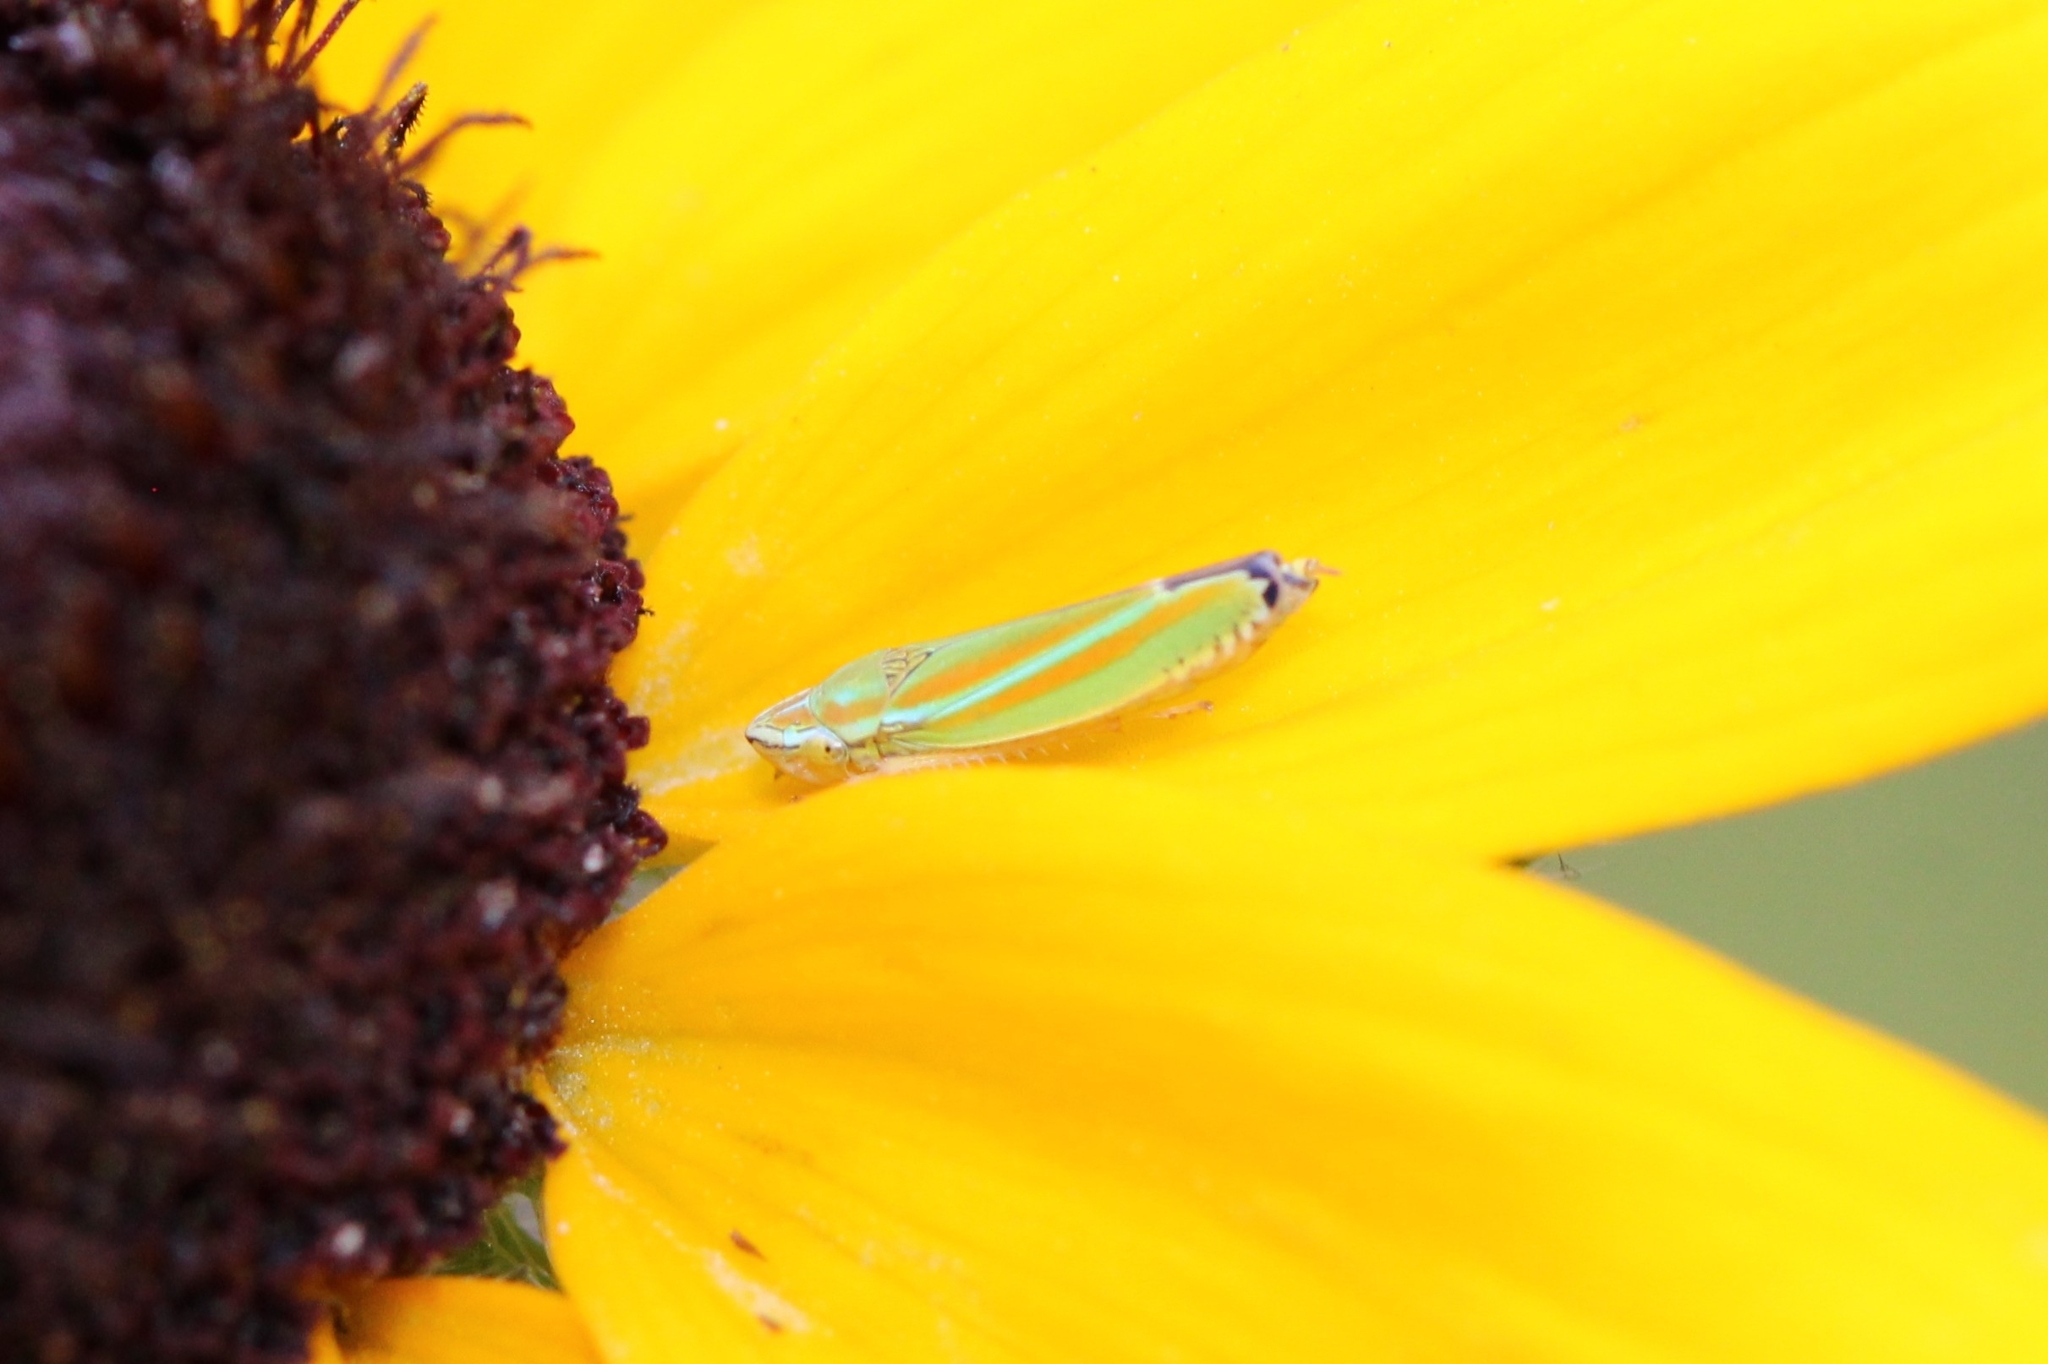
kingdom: Animalia
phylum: Arthropoda
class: Insecta
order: Hemiptera
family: Cicadellidae
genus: Graphocephala
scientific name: Graphocephala versuta
